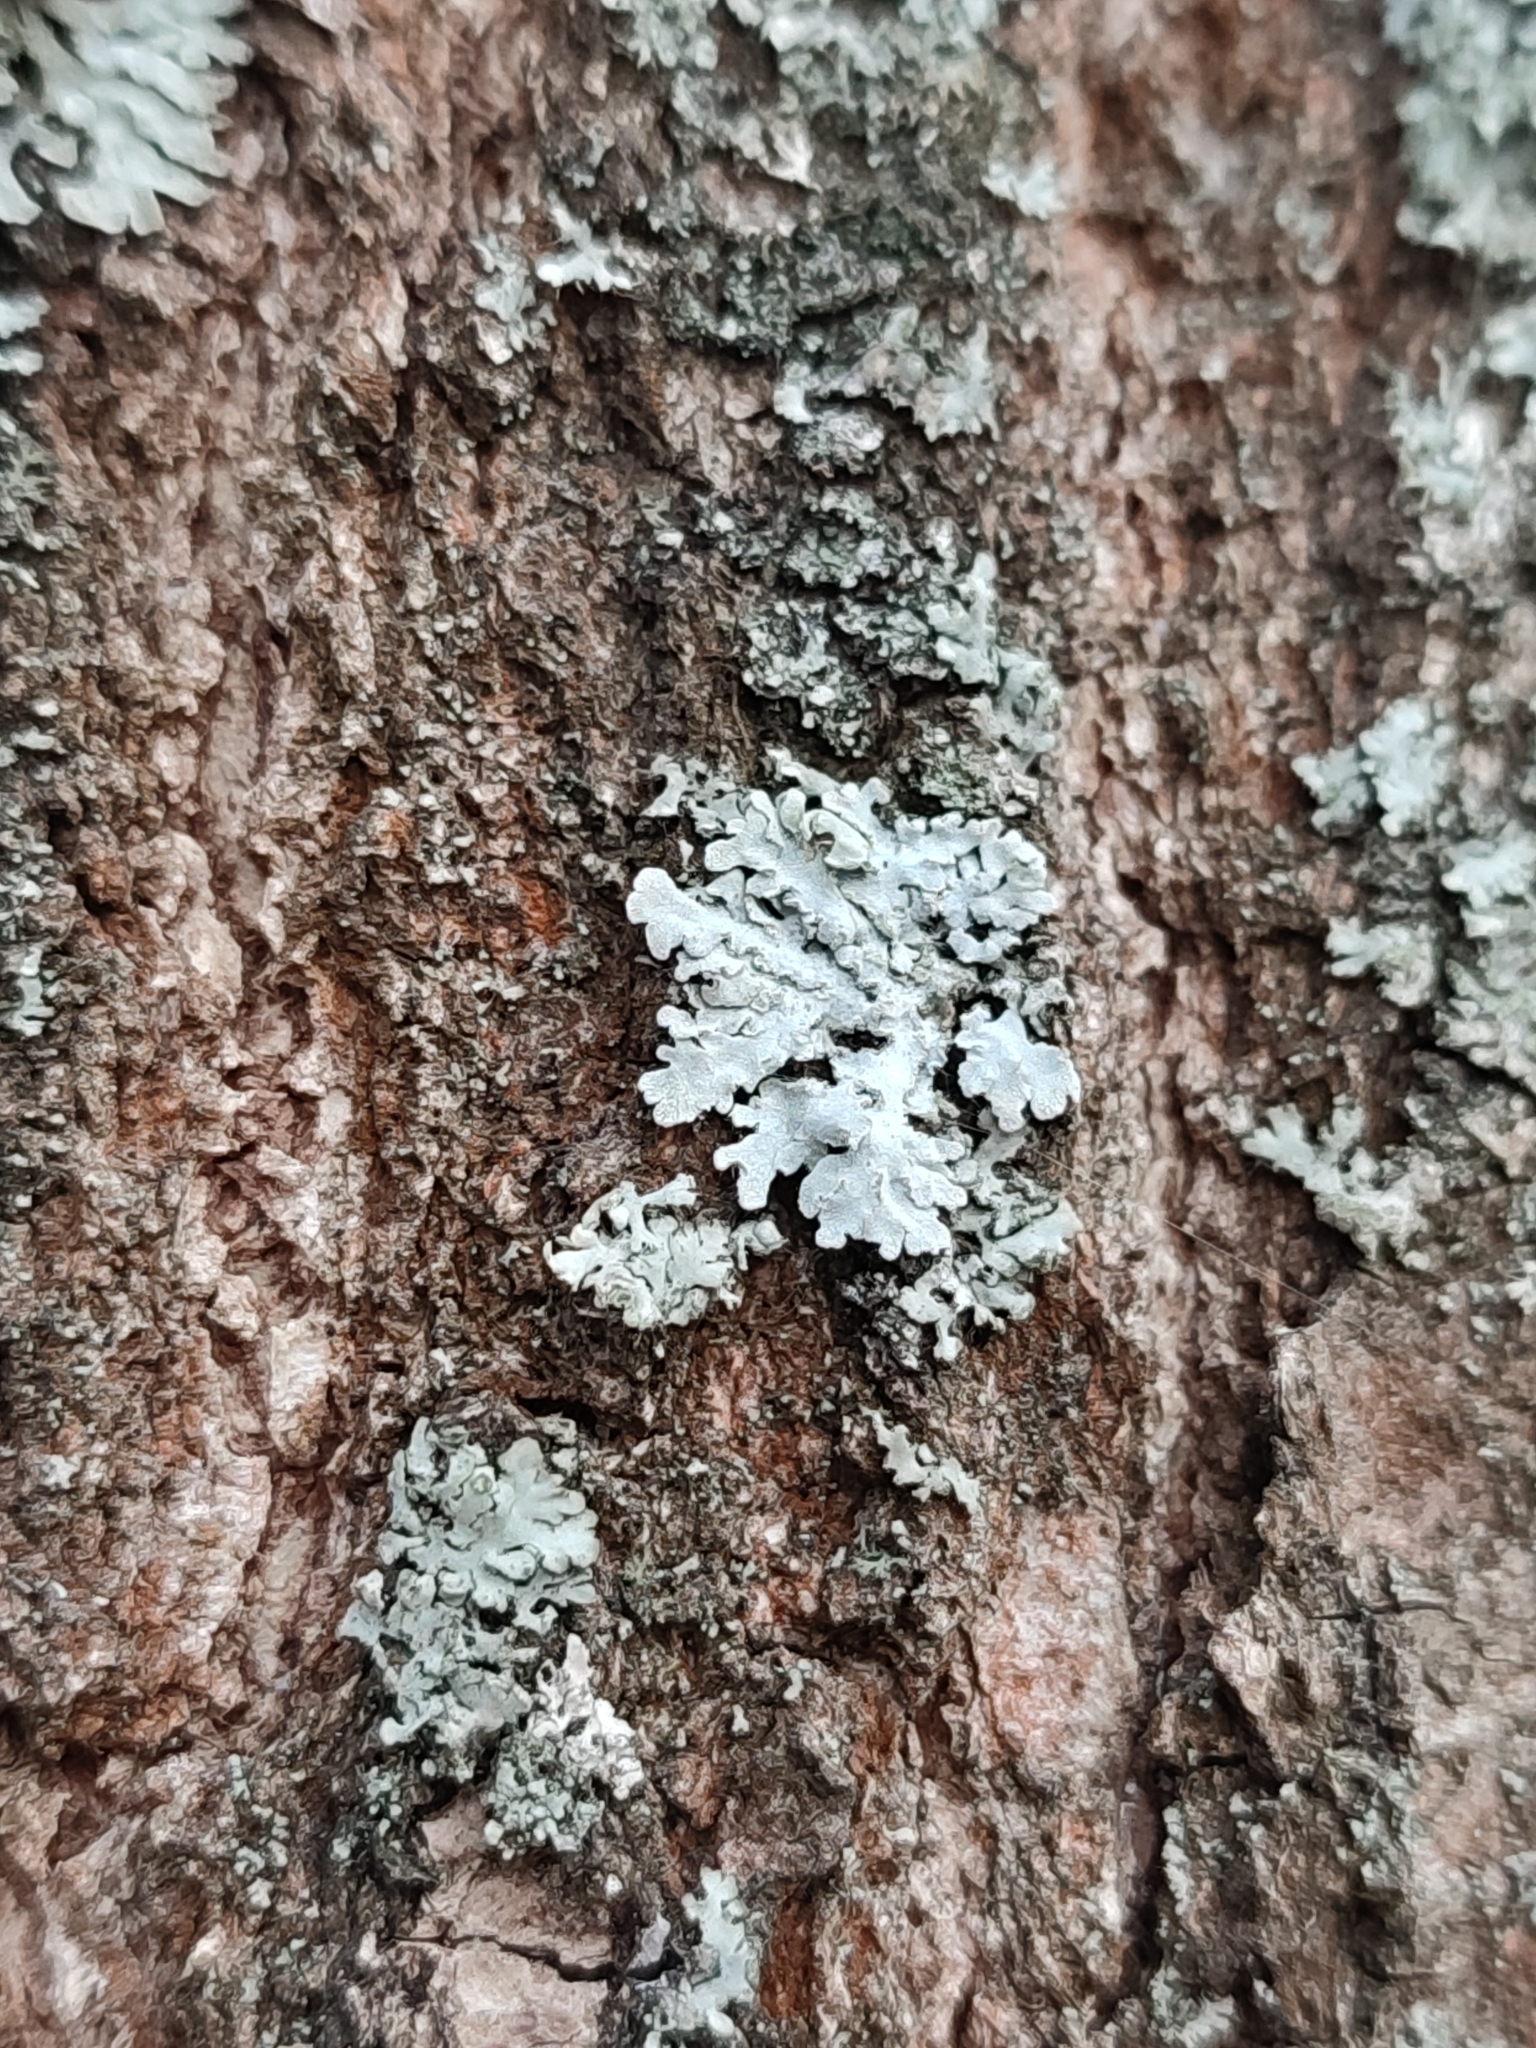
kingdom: Fungi
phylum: Ascomycota
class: Lecanoromycetes
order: Caliciales
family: Physciaceae
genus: Poeltonia
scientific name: Poeltonia grisea
